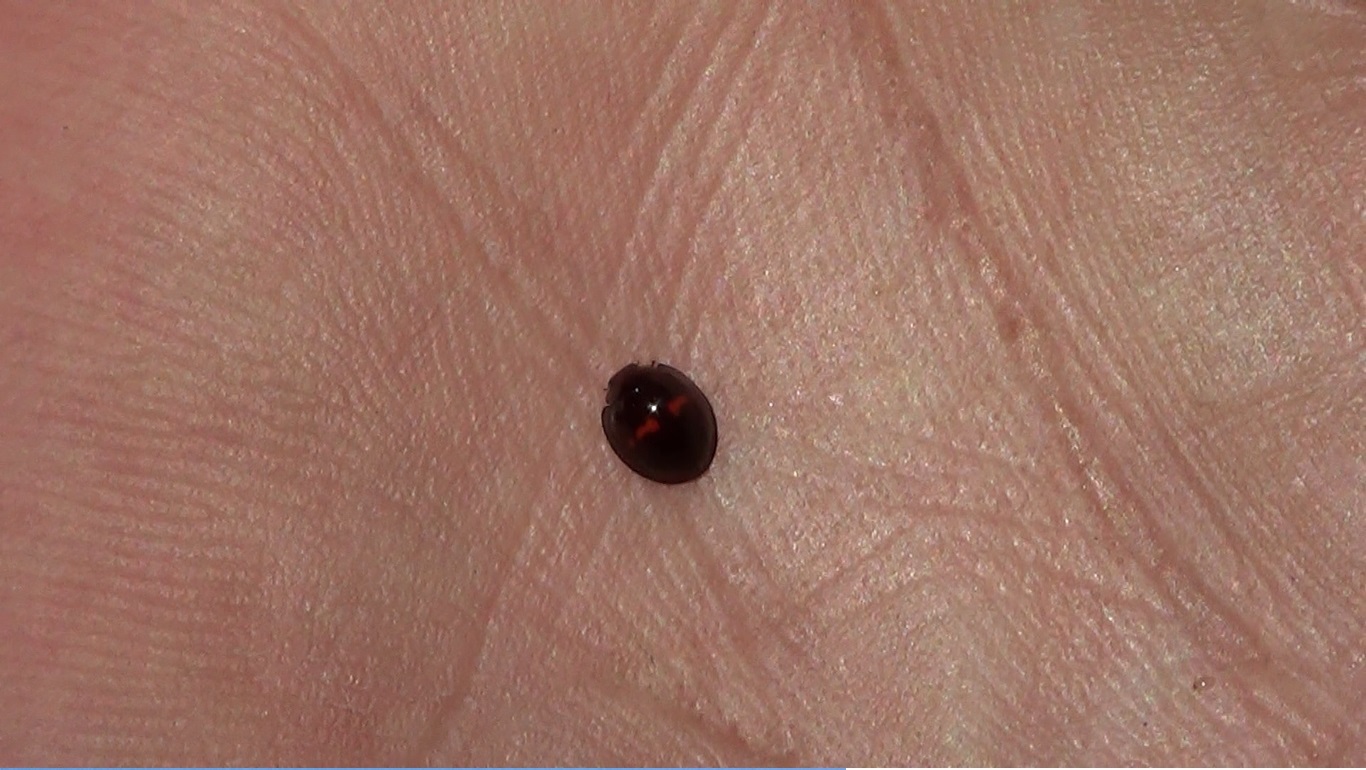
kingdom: Animalia
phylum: Arthropoda
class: Insecta
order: Coleoptera
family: Coccinellidae
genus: Chilocorus
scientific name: Chilocorus bipustulatus
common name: Heather ladybird
